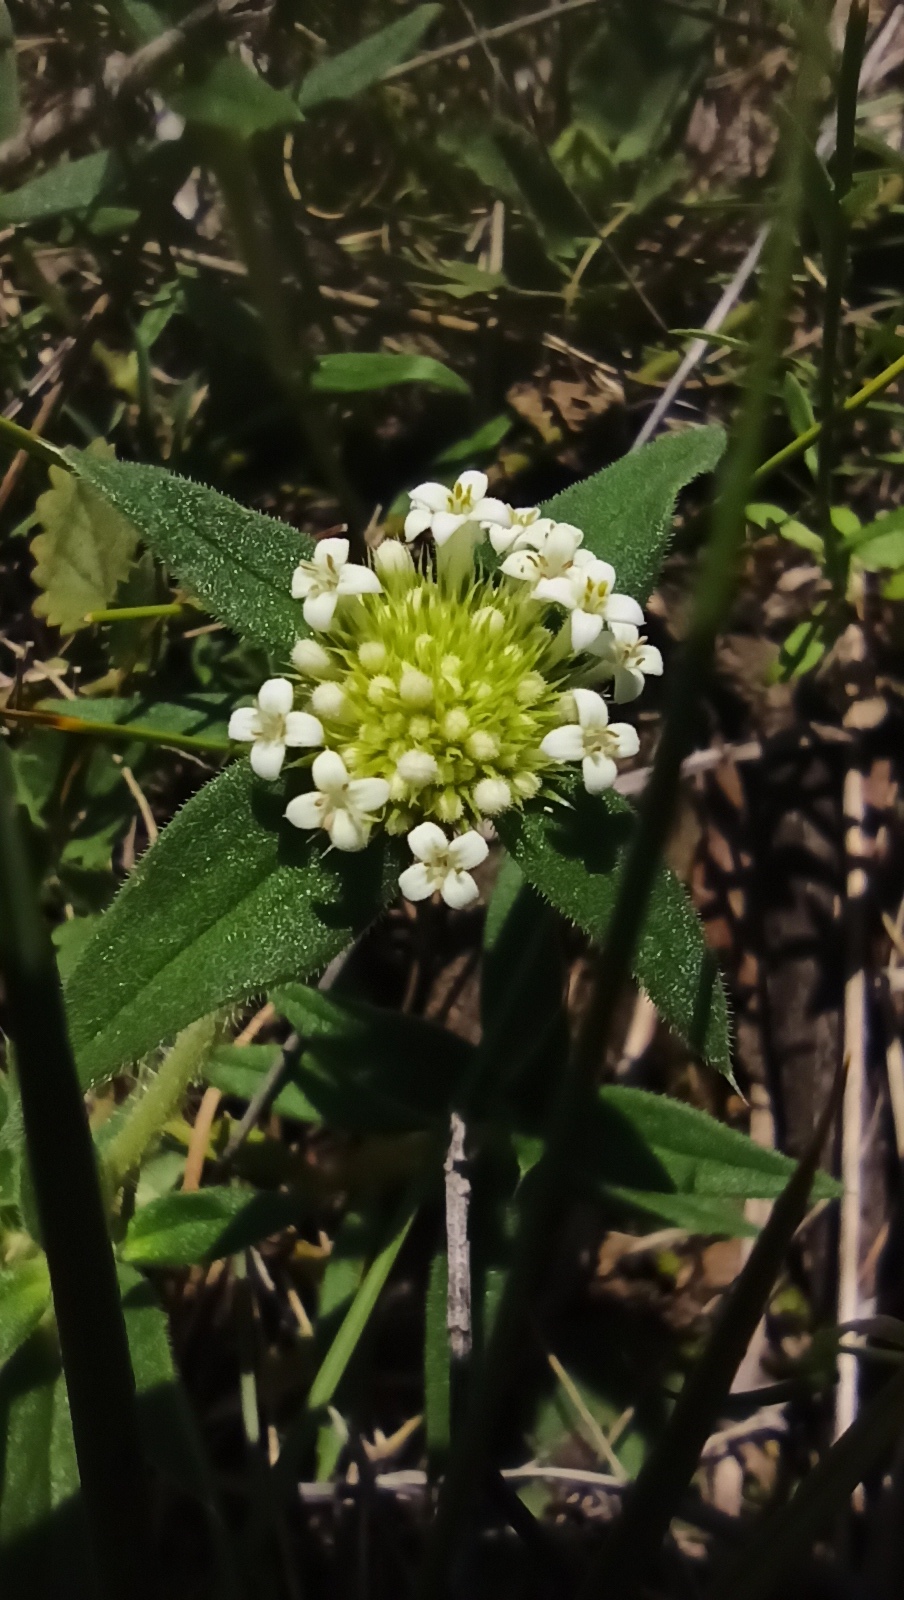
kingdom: Plantae
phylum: Tracheophyta
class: Magnoliopsida
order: Gentianales
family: Rubiaceae
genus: Mitracarpus
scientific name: Mitracarpus megapotamicus
